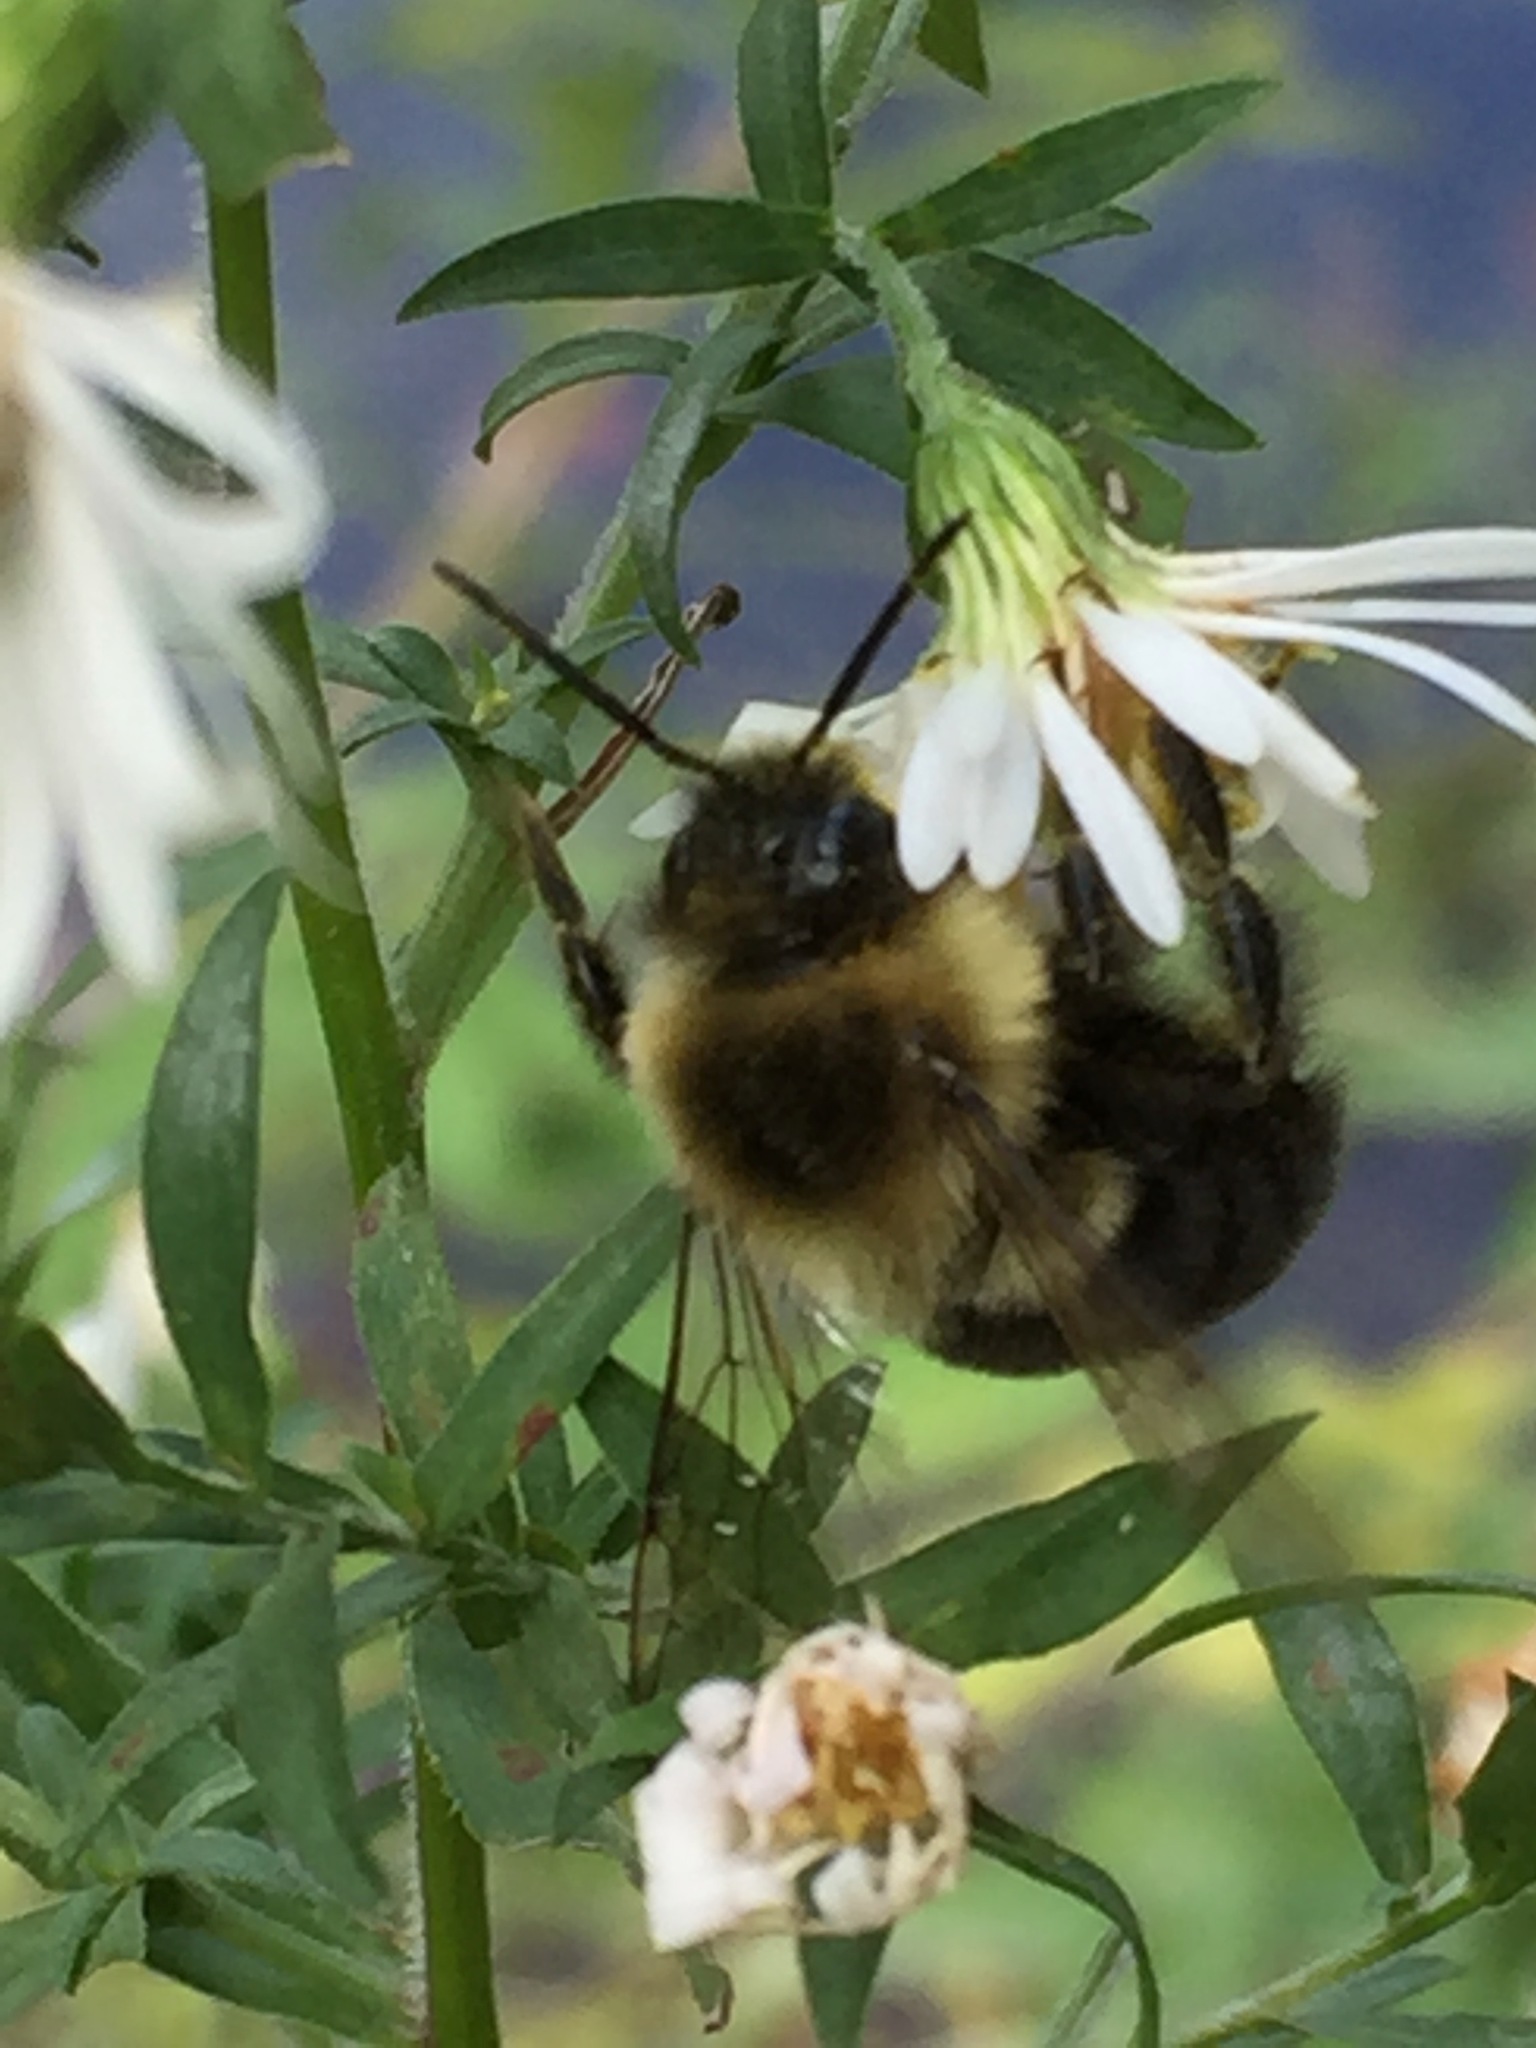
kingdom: Animalia
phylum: Arthropoda
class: Insecta
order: Hymenoptera
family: Apidae
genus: Bombus
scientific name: Bombus impatiens
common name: Common eastern bumble bee
